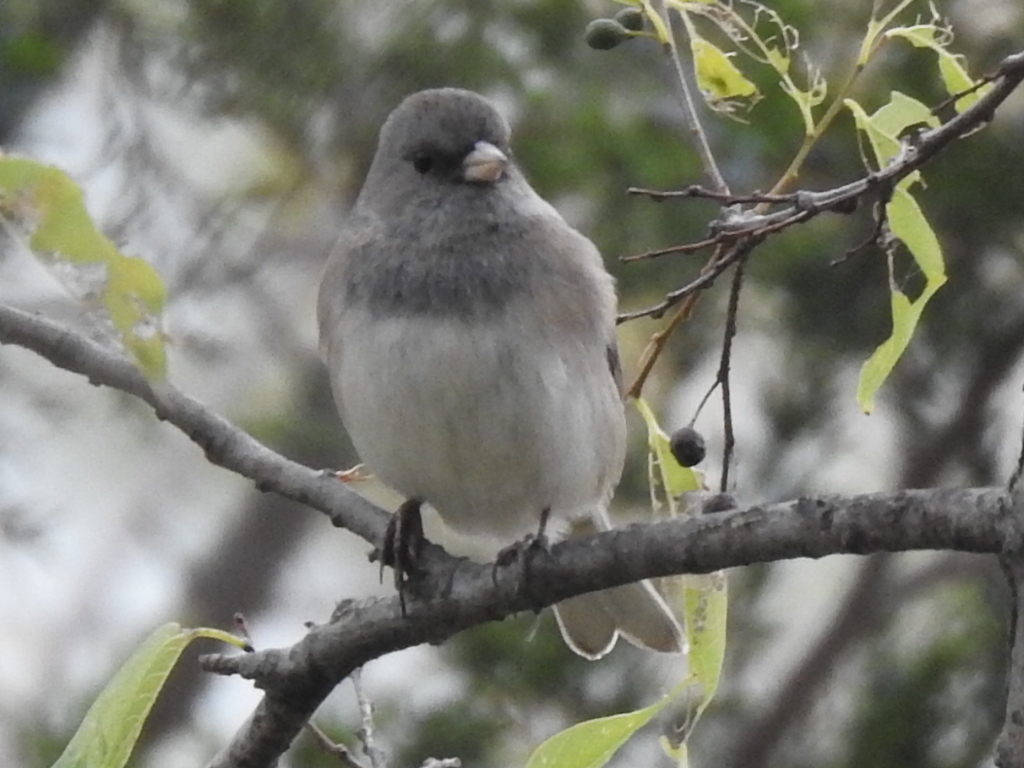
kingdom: Animalia
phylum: Chordata
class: Aves
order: Passeriformes
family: Passerellidae
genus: Junco
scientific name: Junco hyemalis
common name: Dark-eyed junco
